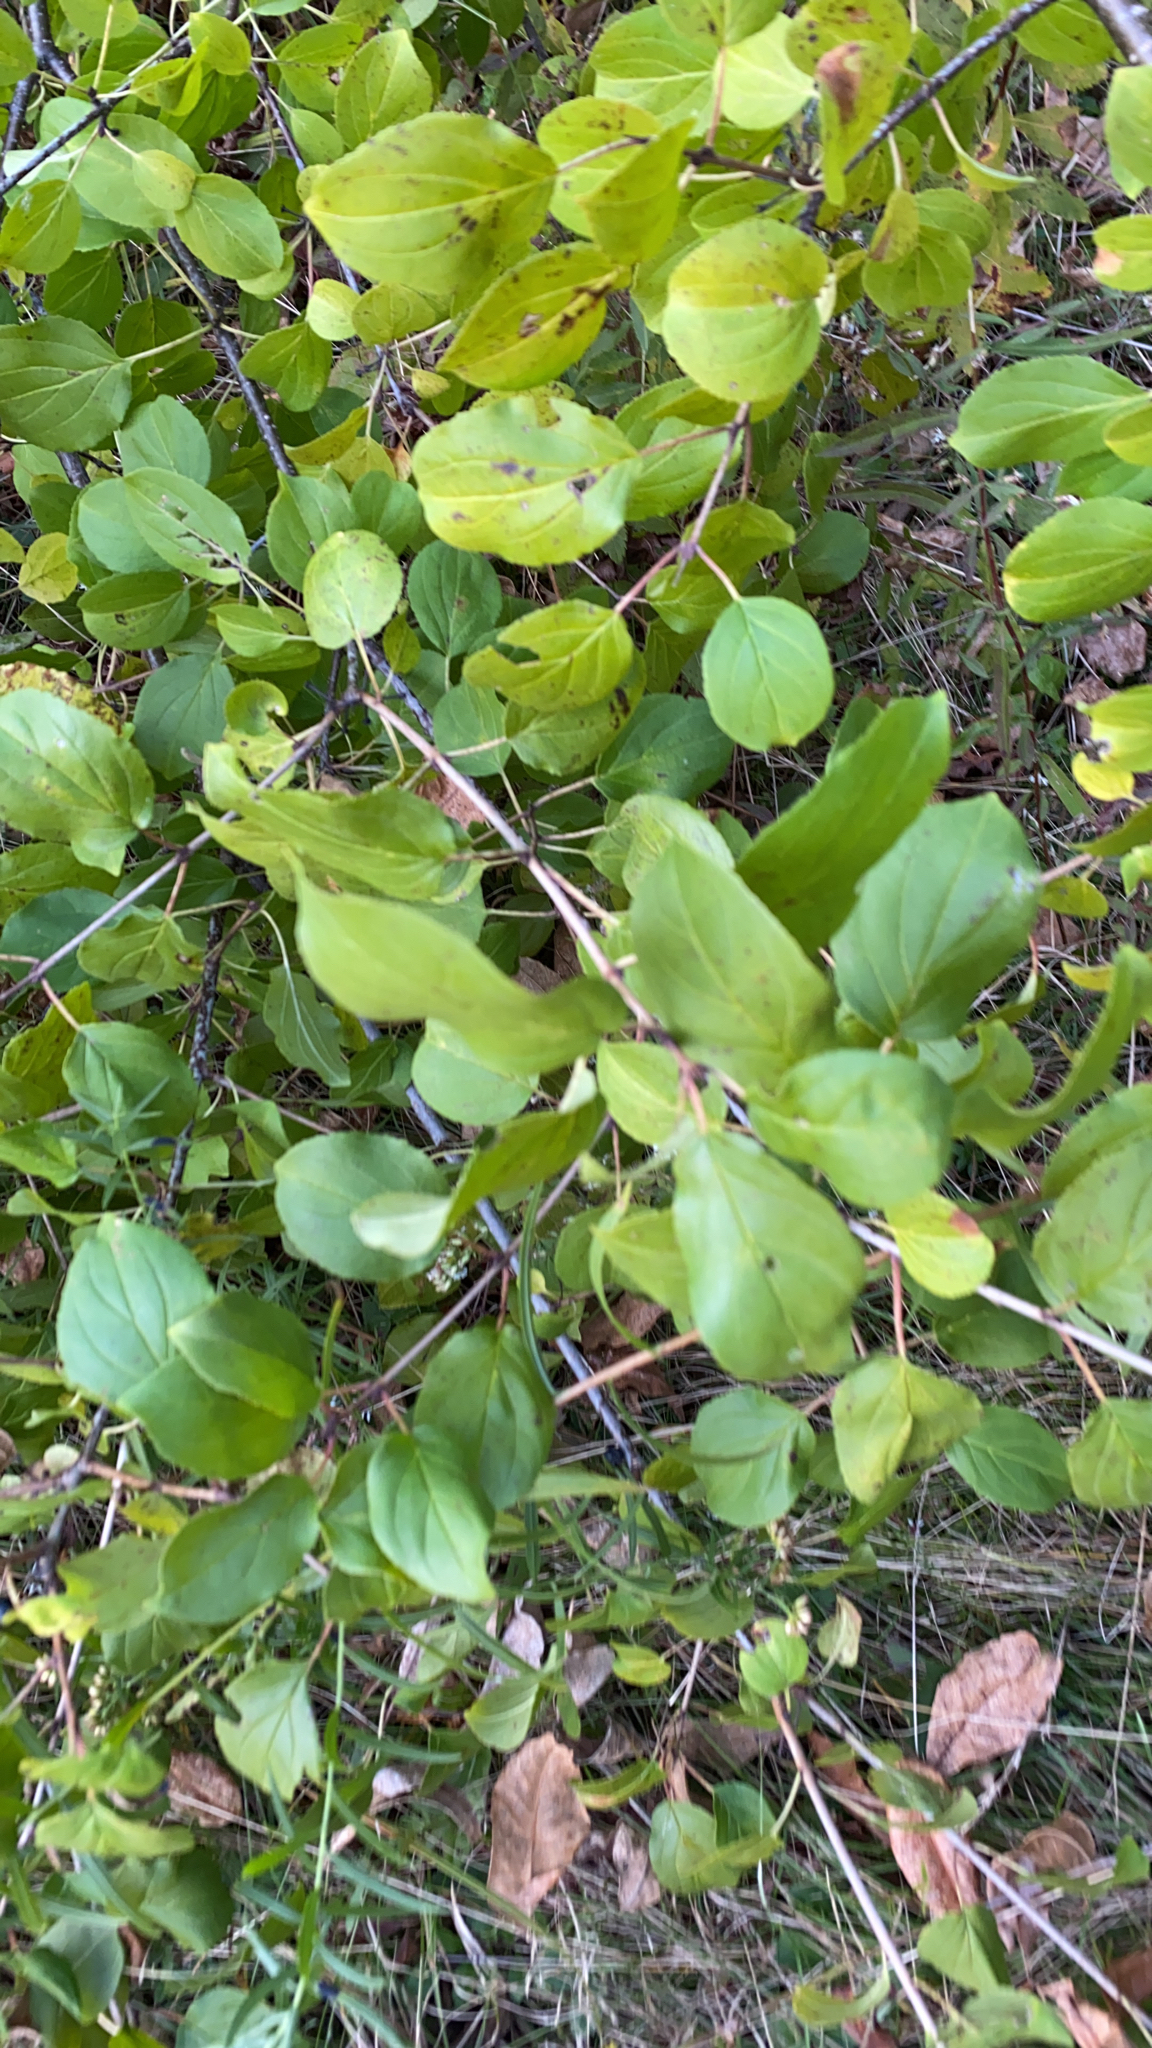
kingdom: Plantae
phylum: Tracheophyta
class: Magnoliopsida
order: Rosales
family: Rhamnaceae
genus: Rhamnus
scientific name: Rhamnus cathartica
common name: Common buckthorn
